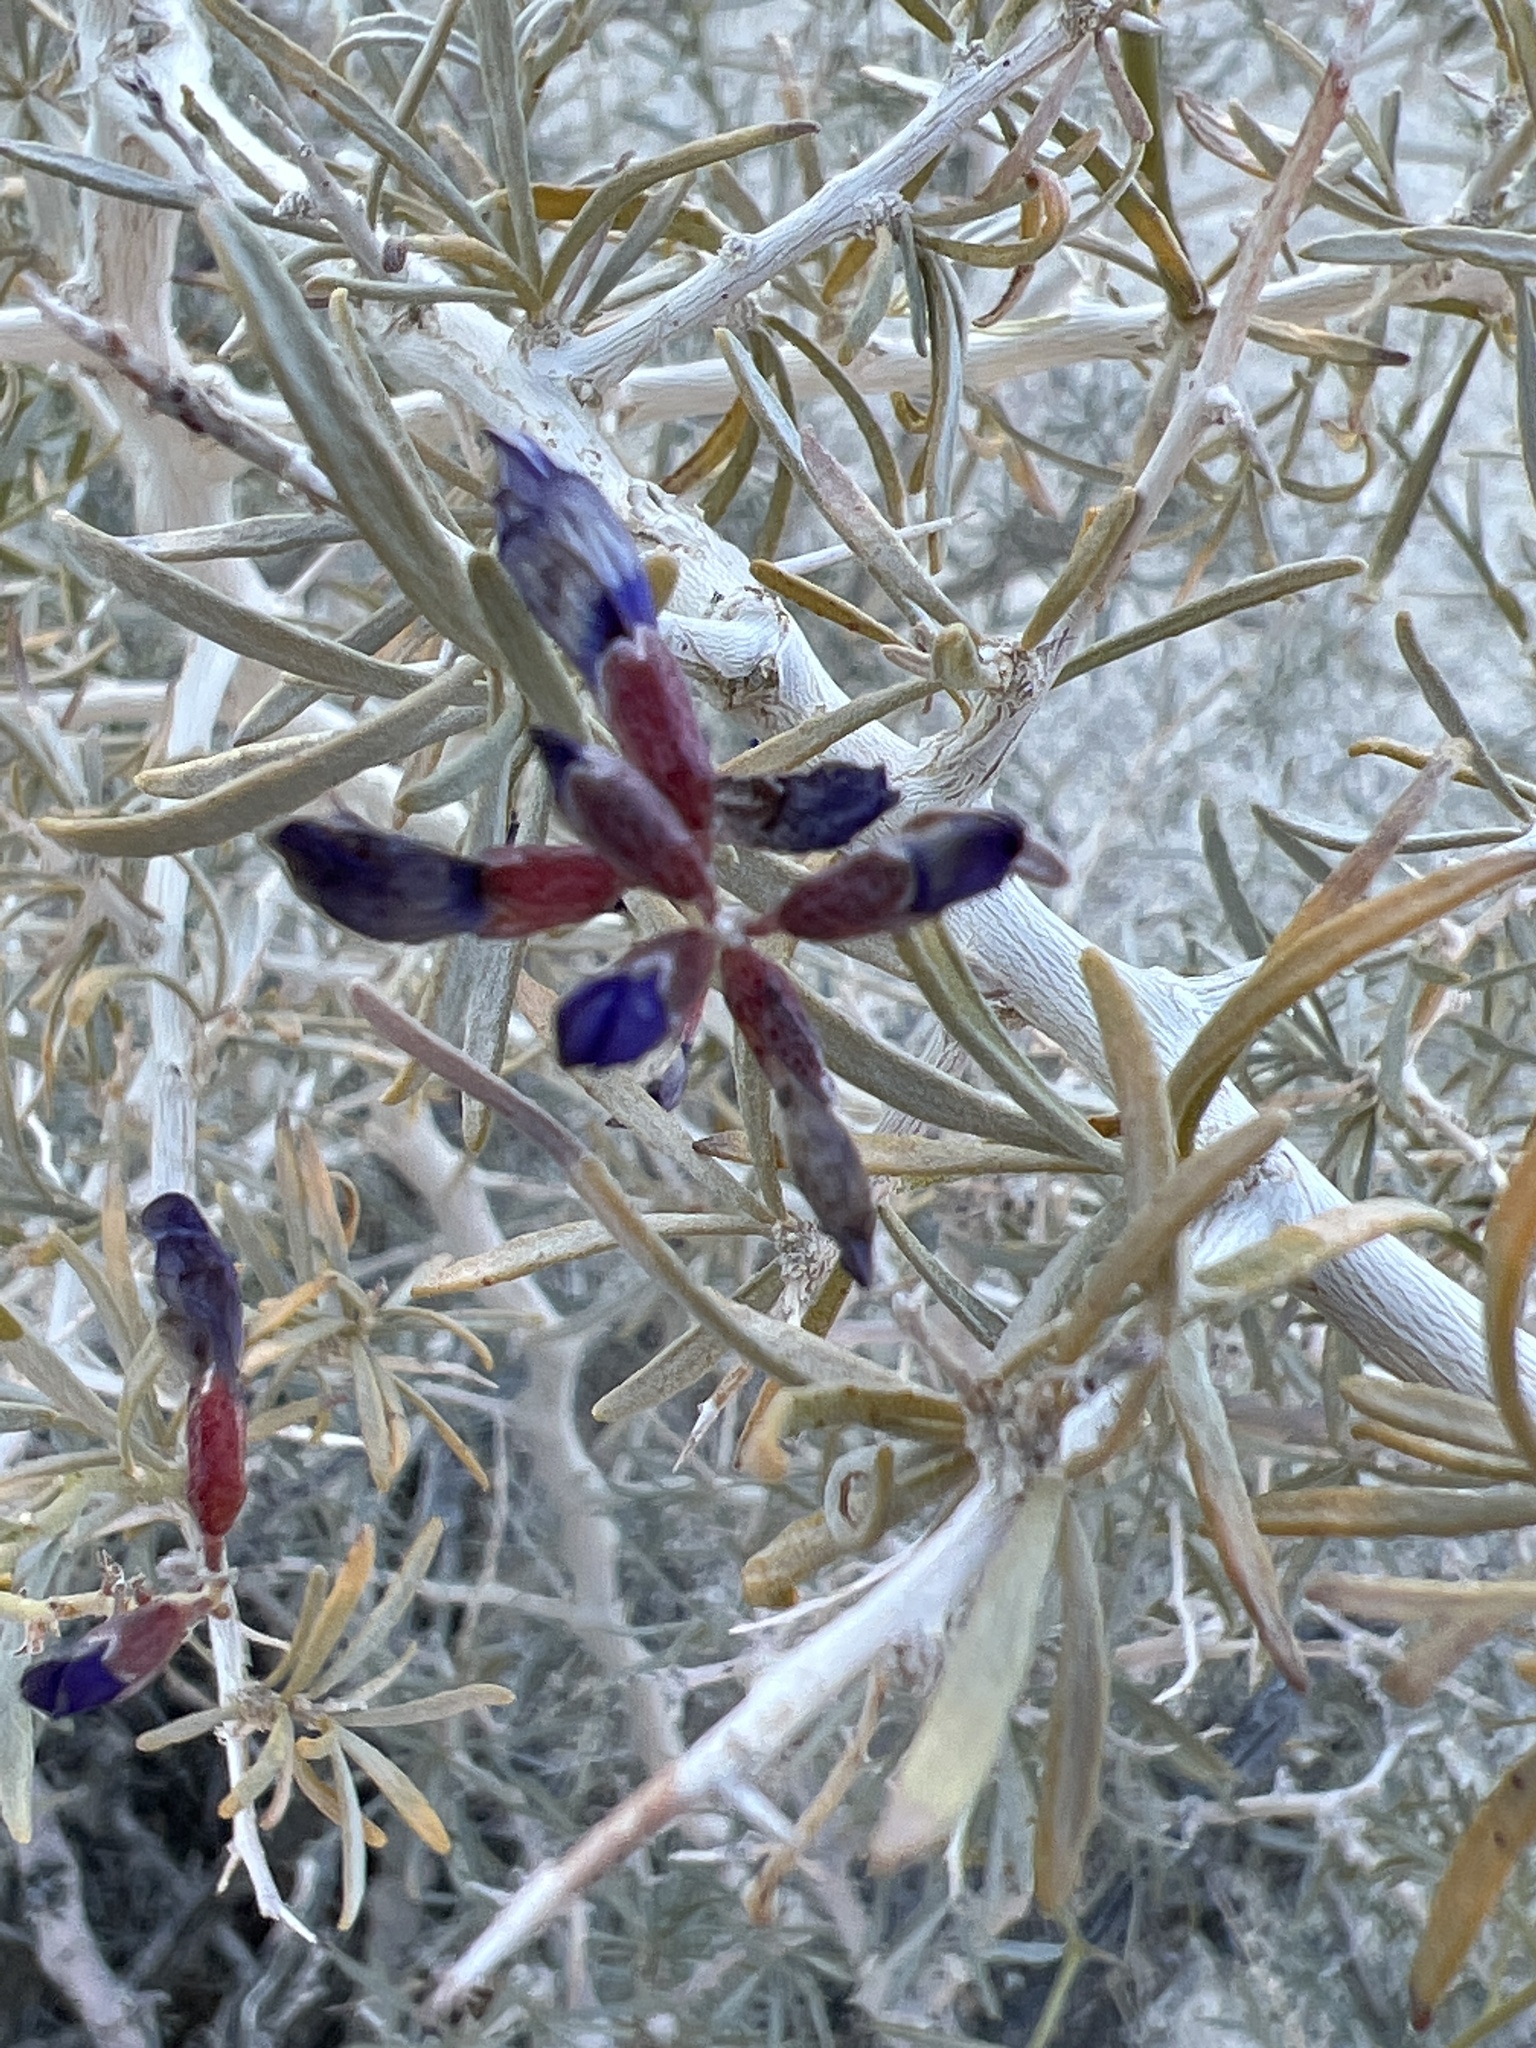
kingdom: Plantae
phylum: Tracheophyta
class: Magnoliopsida
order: Fabales
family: Fabaceae
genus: Psorothamnus
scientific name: Psorothamnus schottii
